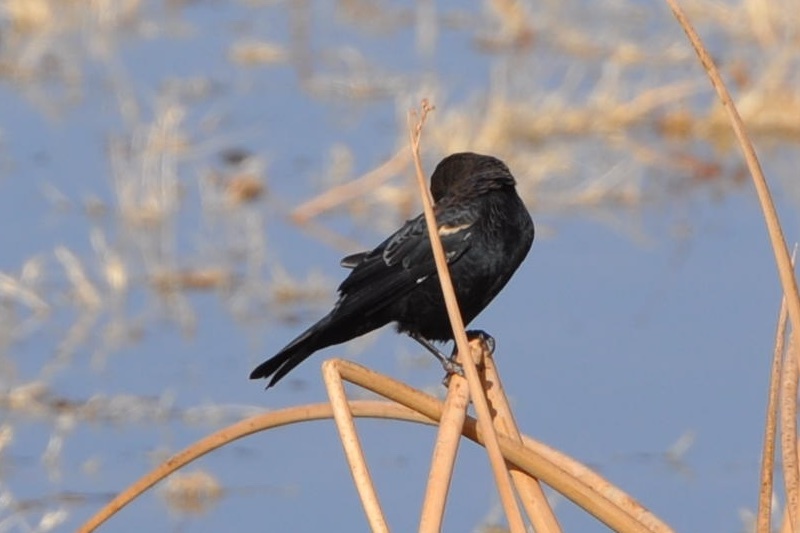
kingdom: Animalia
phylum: Chordata
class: Aves
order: Passeriformes
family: Icteridae
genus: Agelaius
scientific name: Agelaius phoeniceus
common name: Red-winged blackbird
